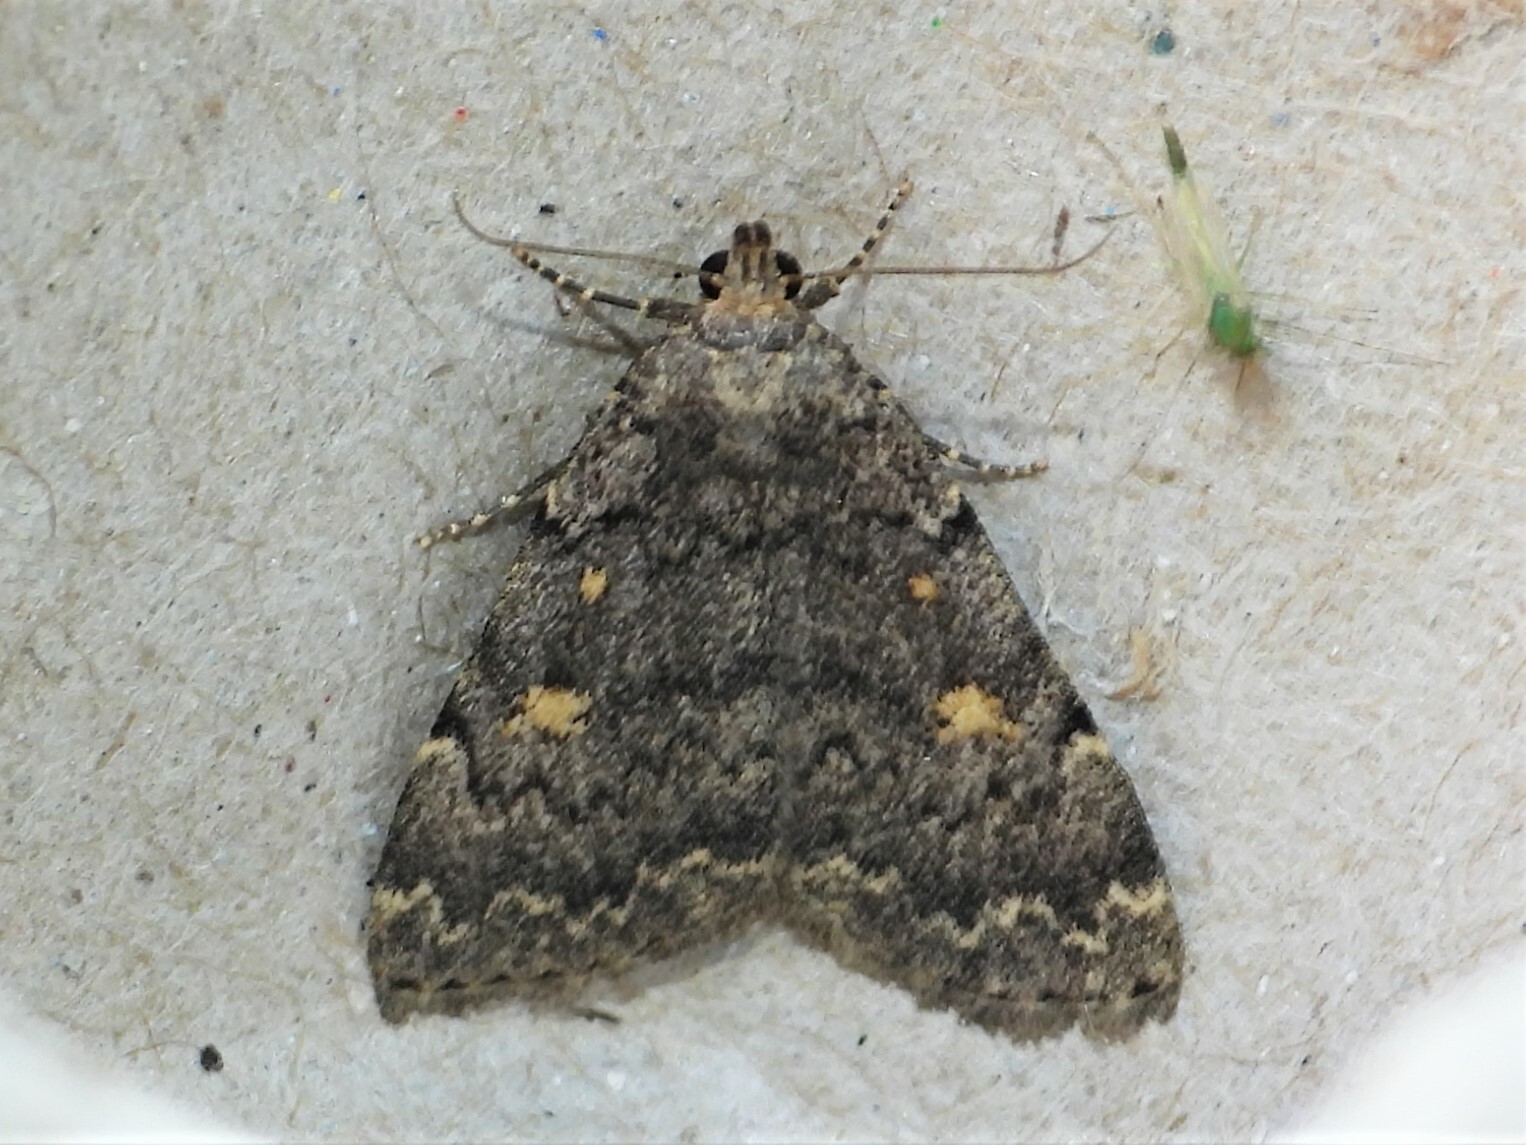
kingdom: Animalia
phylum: Arthropoda
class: Insecta
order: Lepidoptera
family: Erebidae
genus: Idia
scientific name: Idia aemula
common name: Common idia moth
